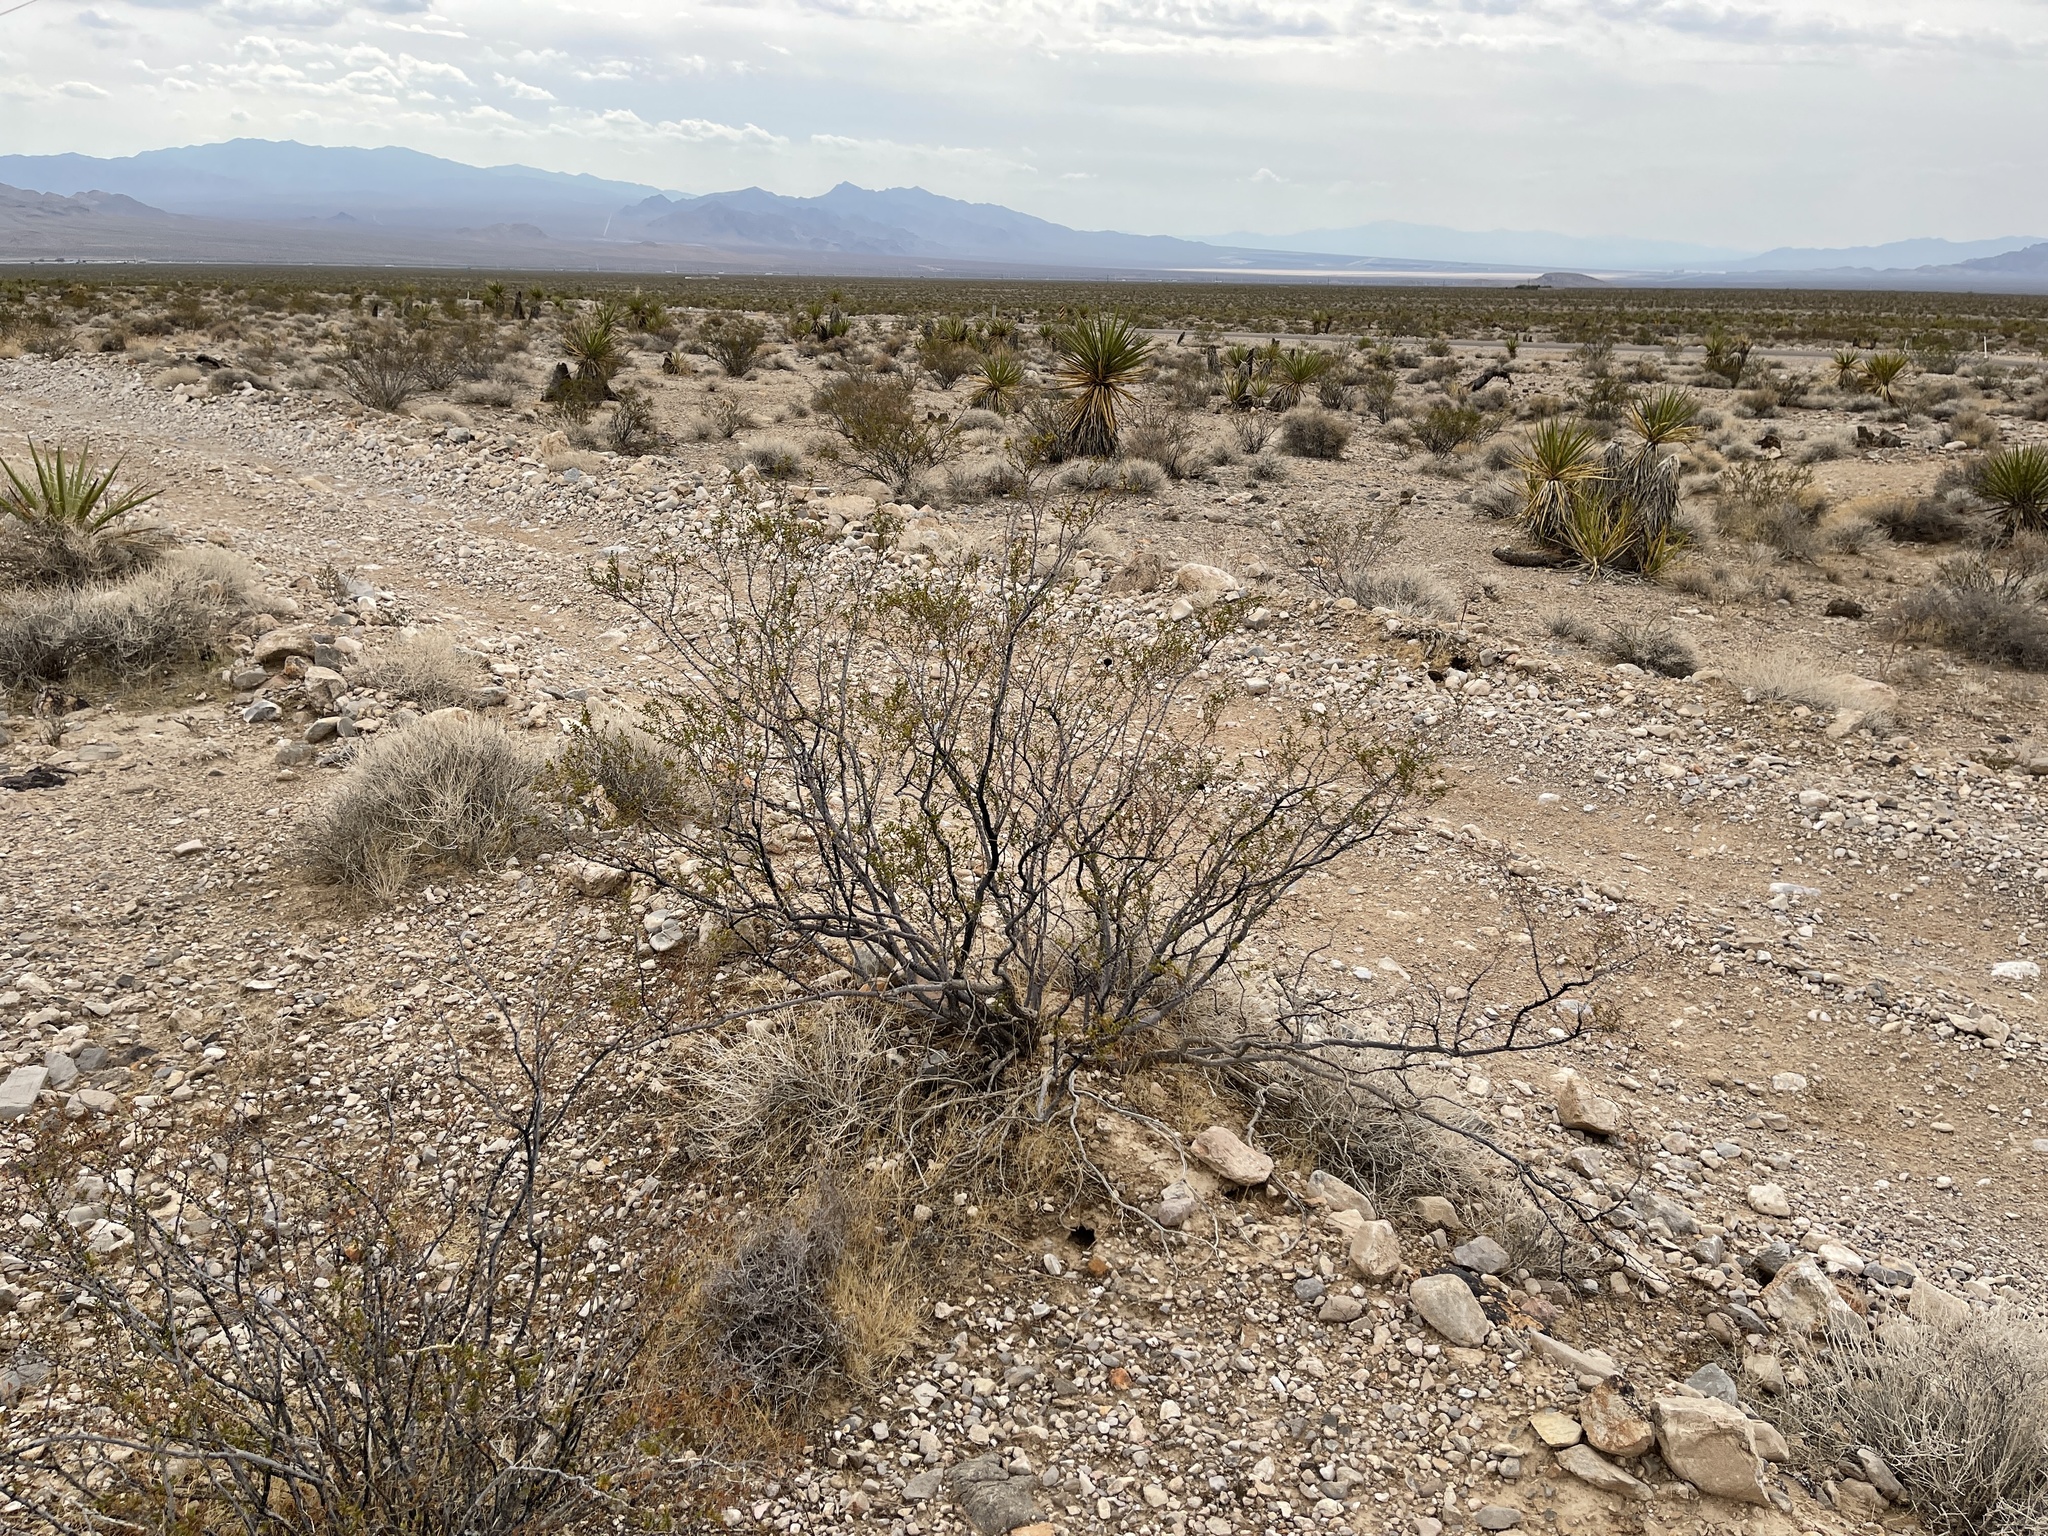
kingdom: Plantae
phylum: Tracheophyta
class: Magnoliopsida
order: Zygophyllales
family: Zygophyllaceae
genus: Larrea
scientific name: Larrea tridentata
